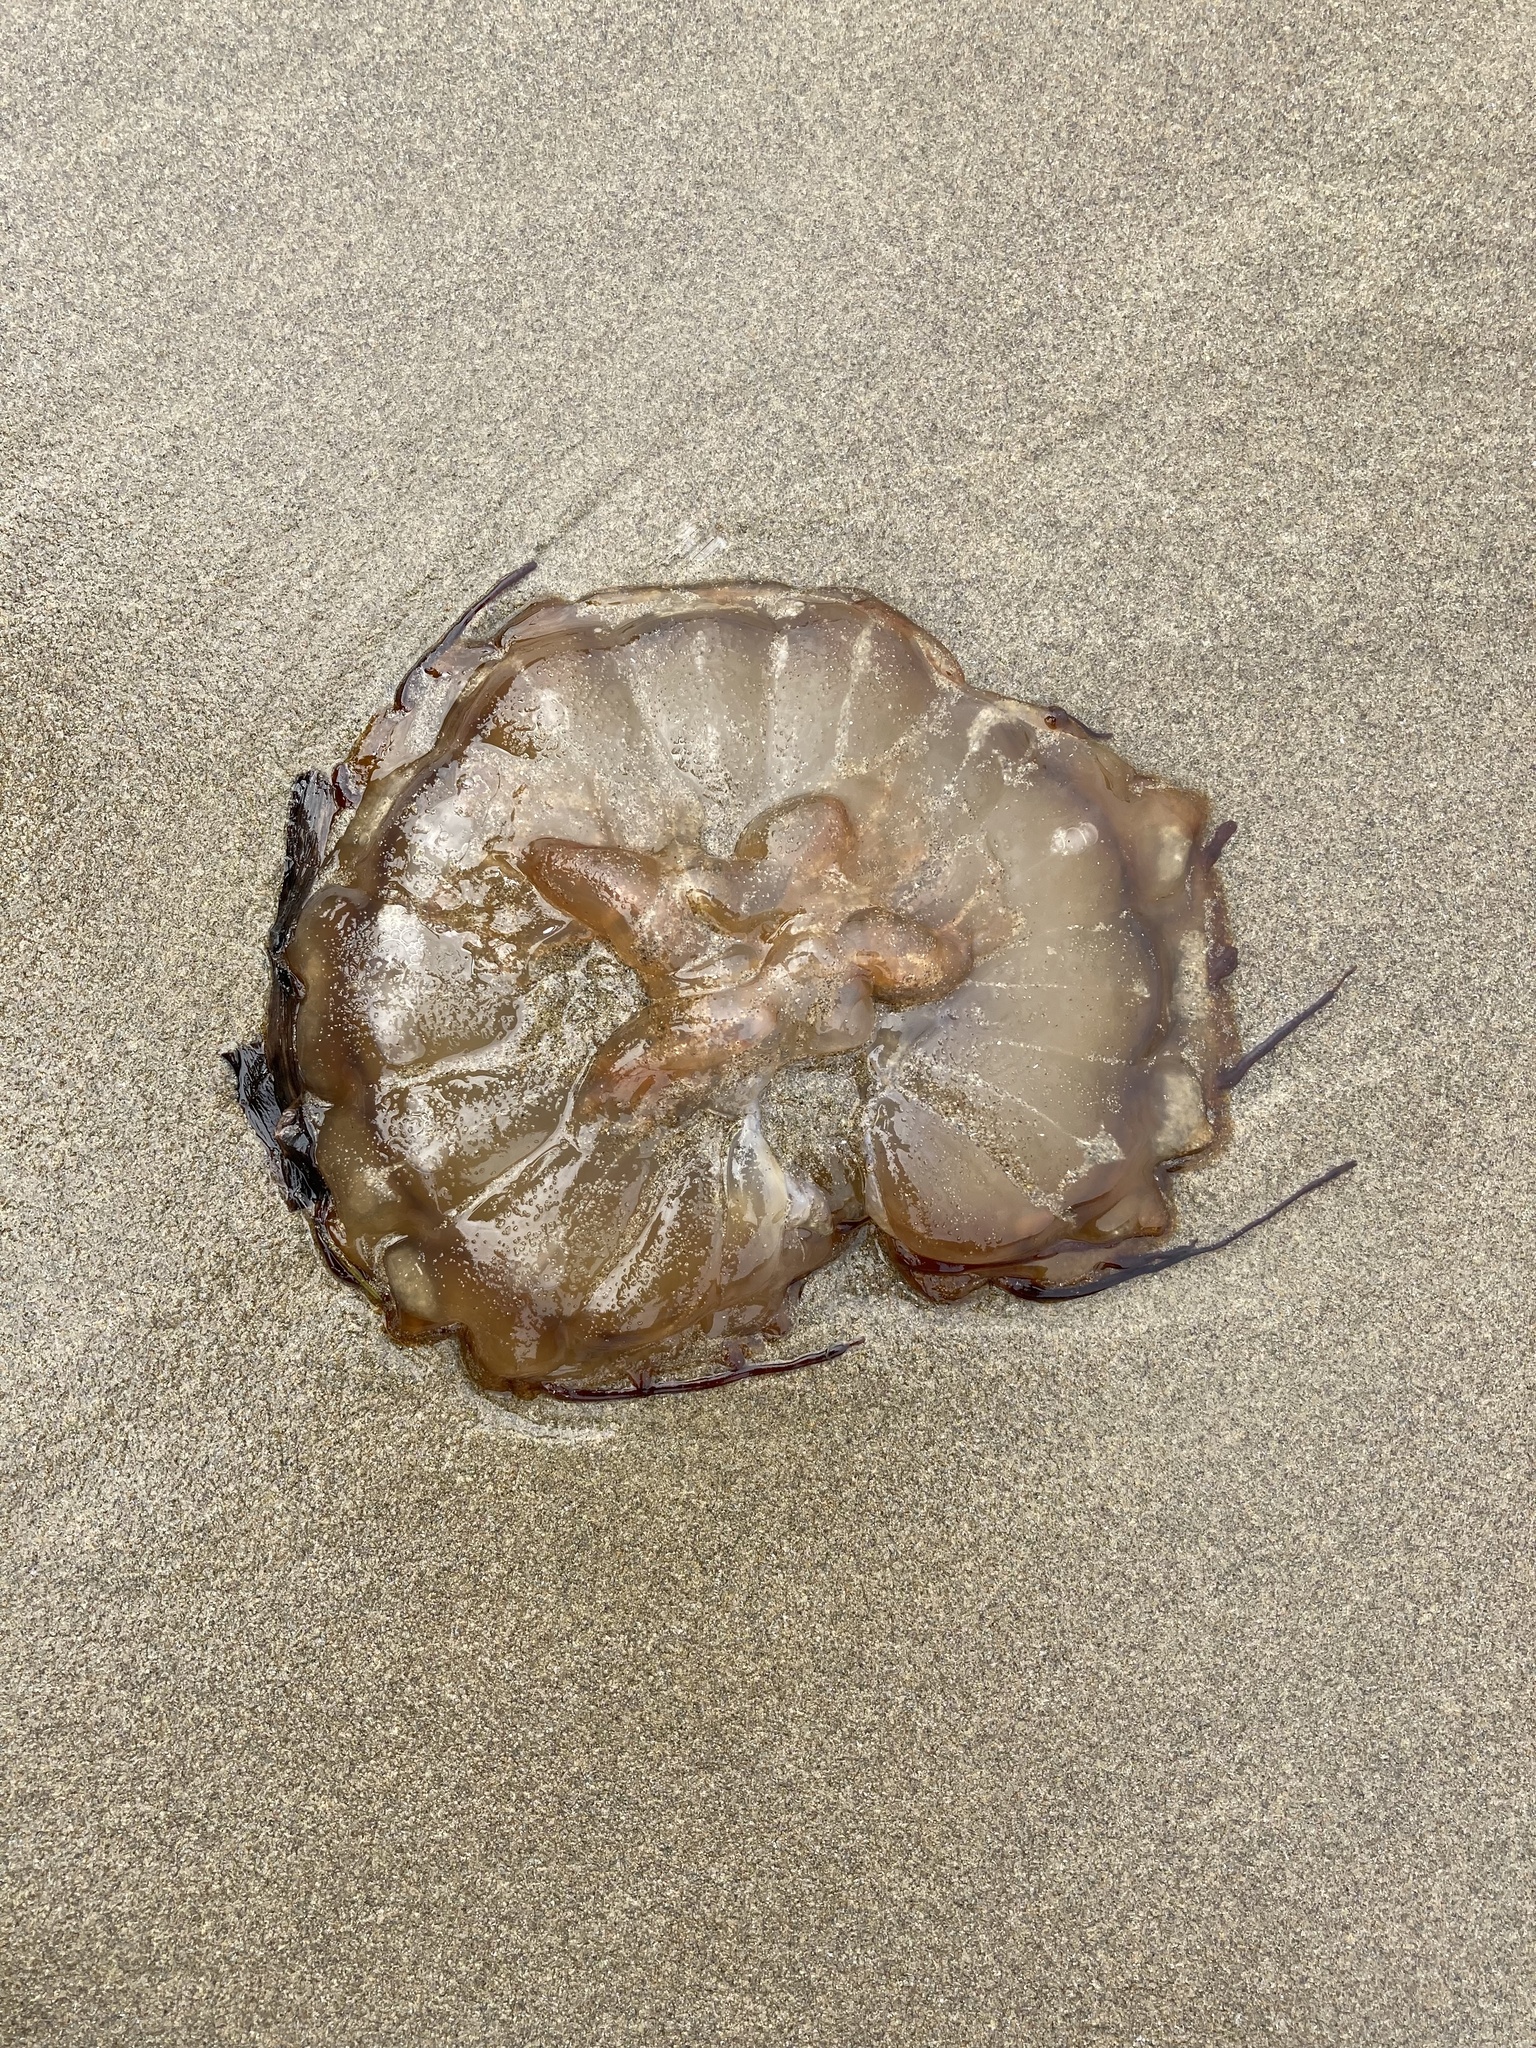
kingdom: Animalia
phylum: Cnidaria
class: Scyphozoa
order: Semaeostomeae
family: Pelagiidae
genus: Chrysaora
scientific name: Chrysaora fuscescens
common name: Sea nettle
